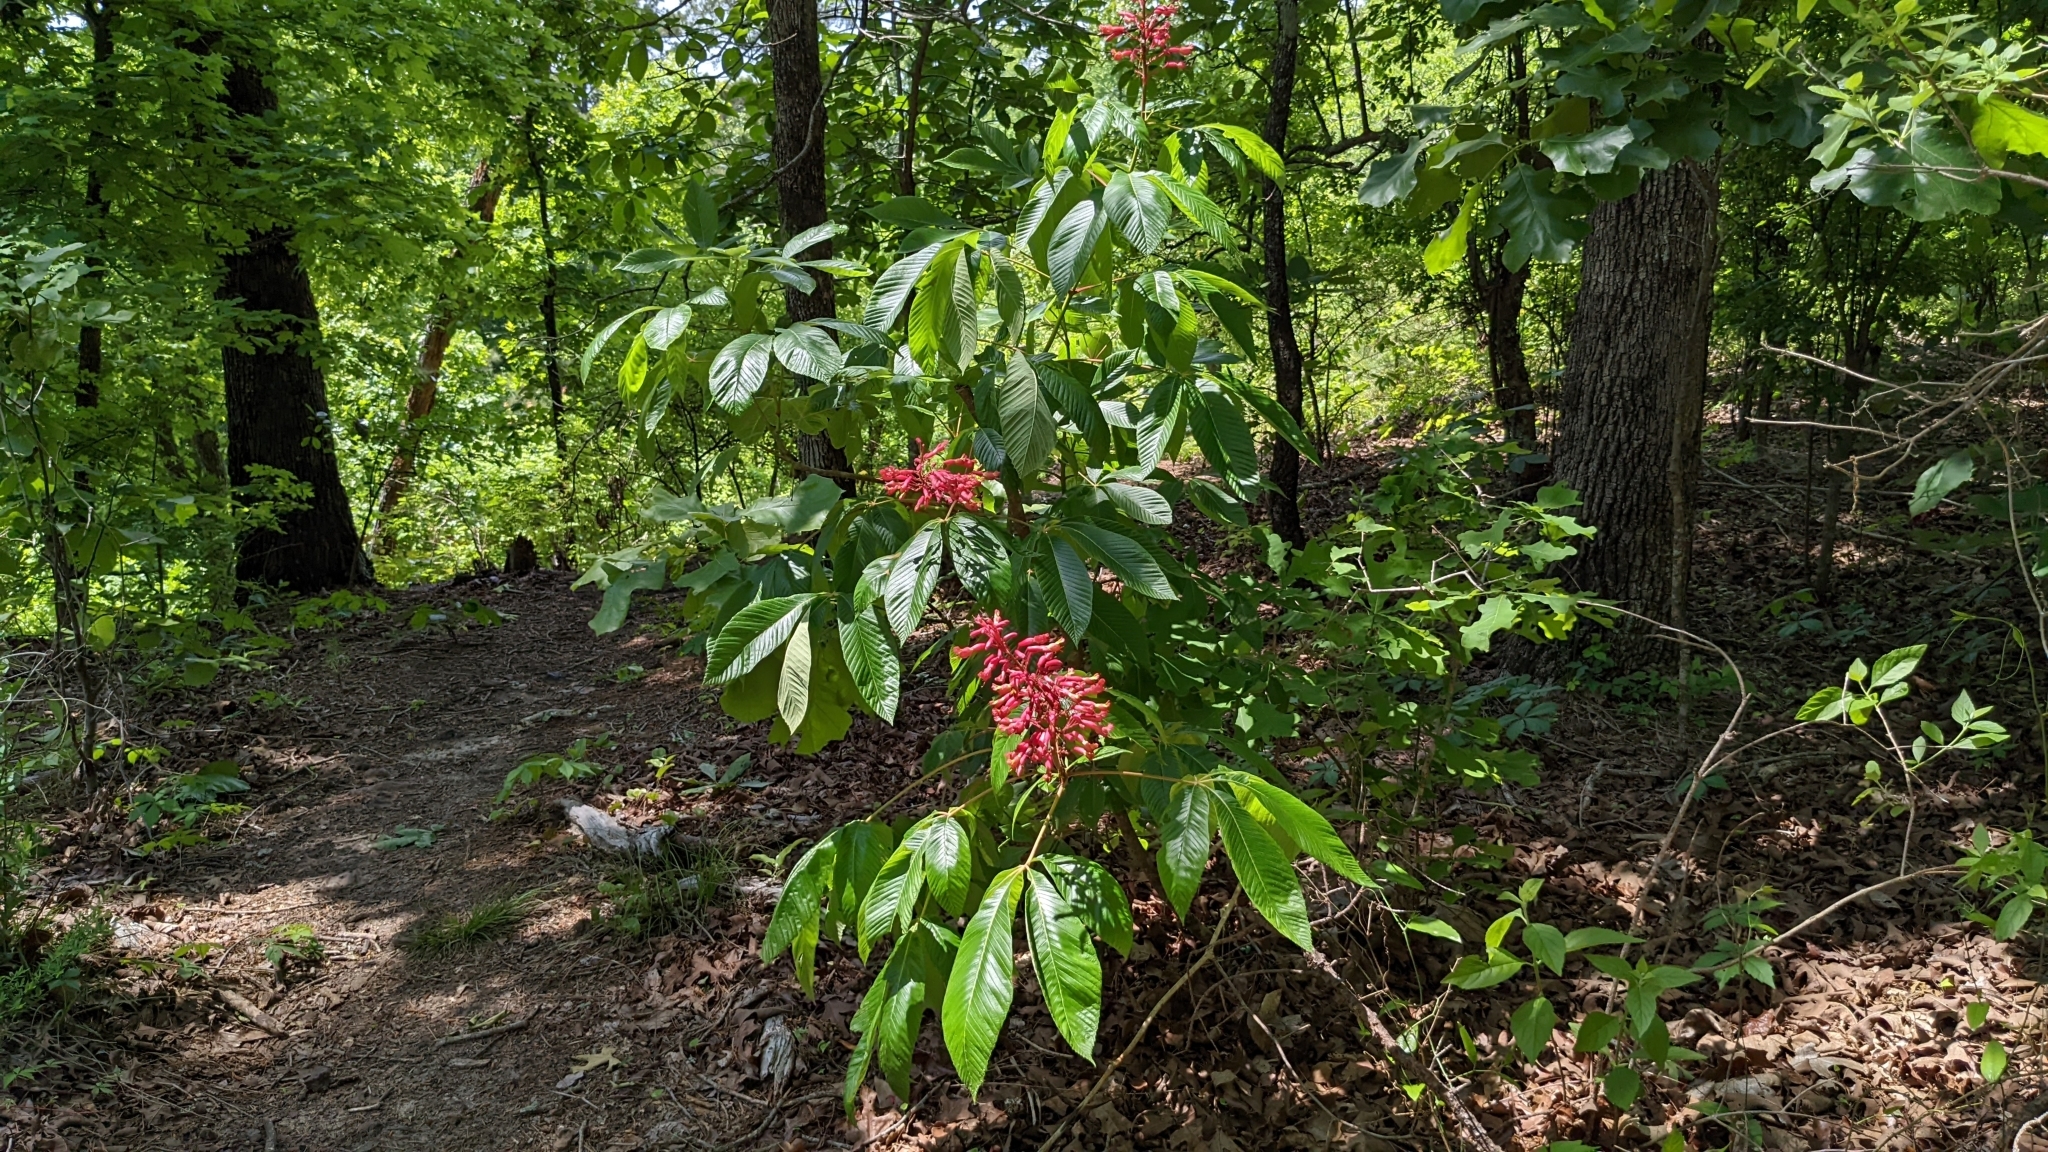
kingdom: Plantae
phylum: Tracheophyta
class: Magnoliopsida
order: Sapindales
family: Sapindaceae
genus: Aesculus
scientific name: Aesculus pavia
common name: Red buckeye
